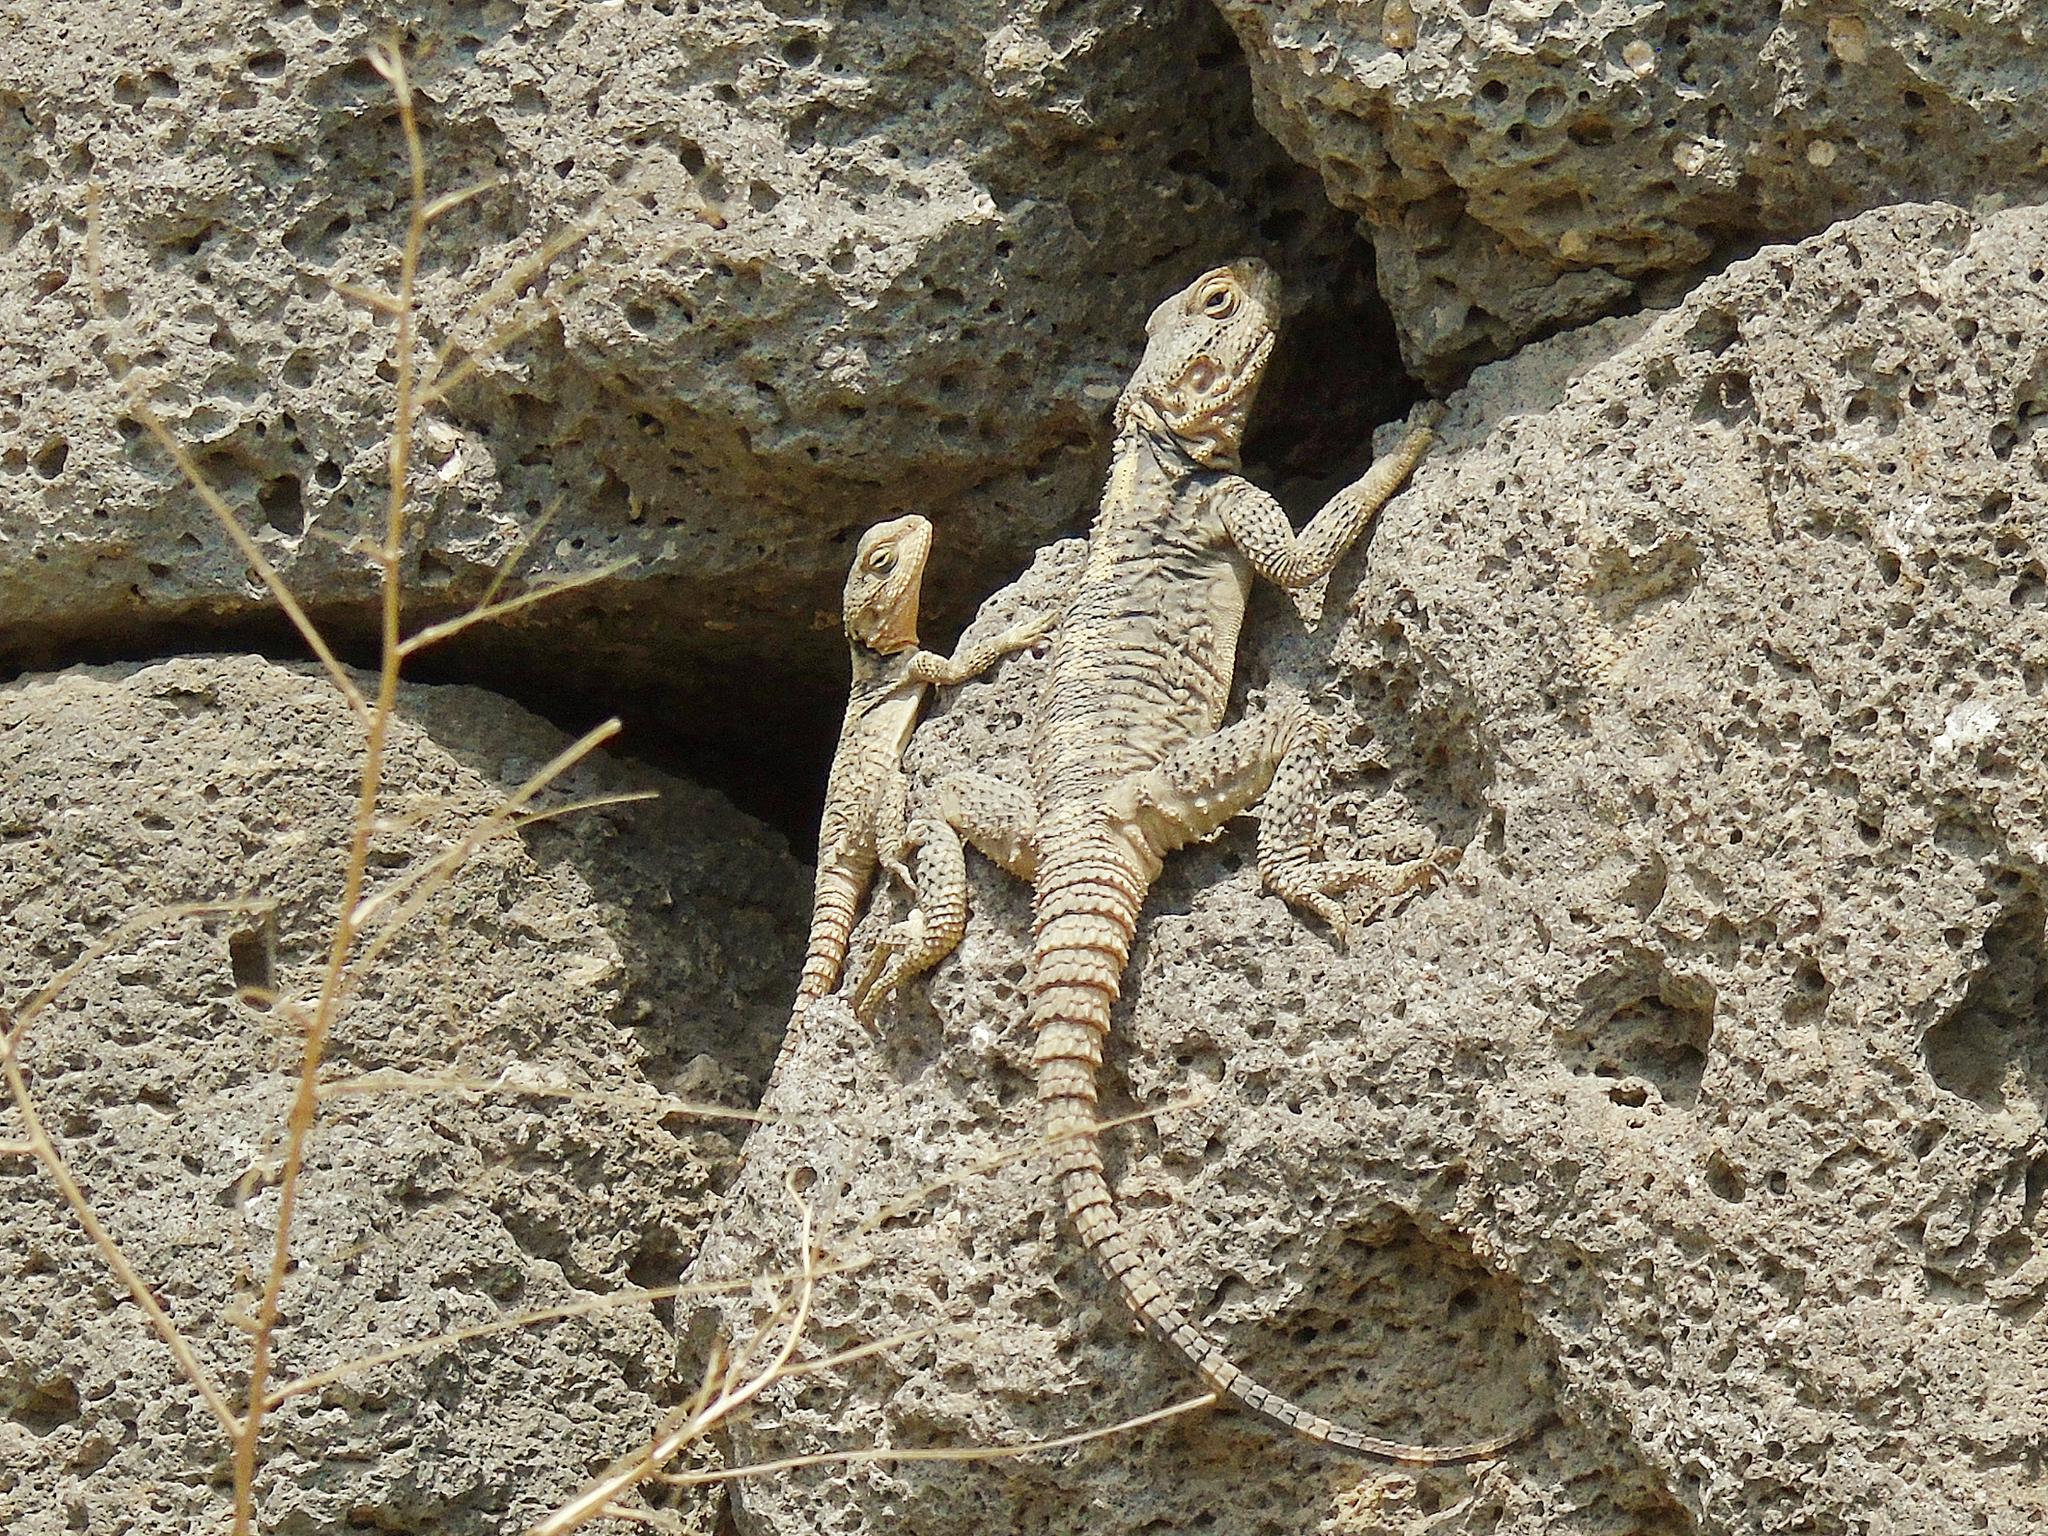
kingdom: Animalia
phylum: Chordata
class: Squamata
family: Agamidae
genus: Stellagama
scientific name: Stellagama stellio
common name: Starred agama
